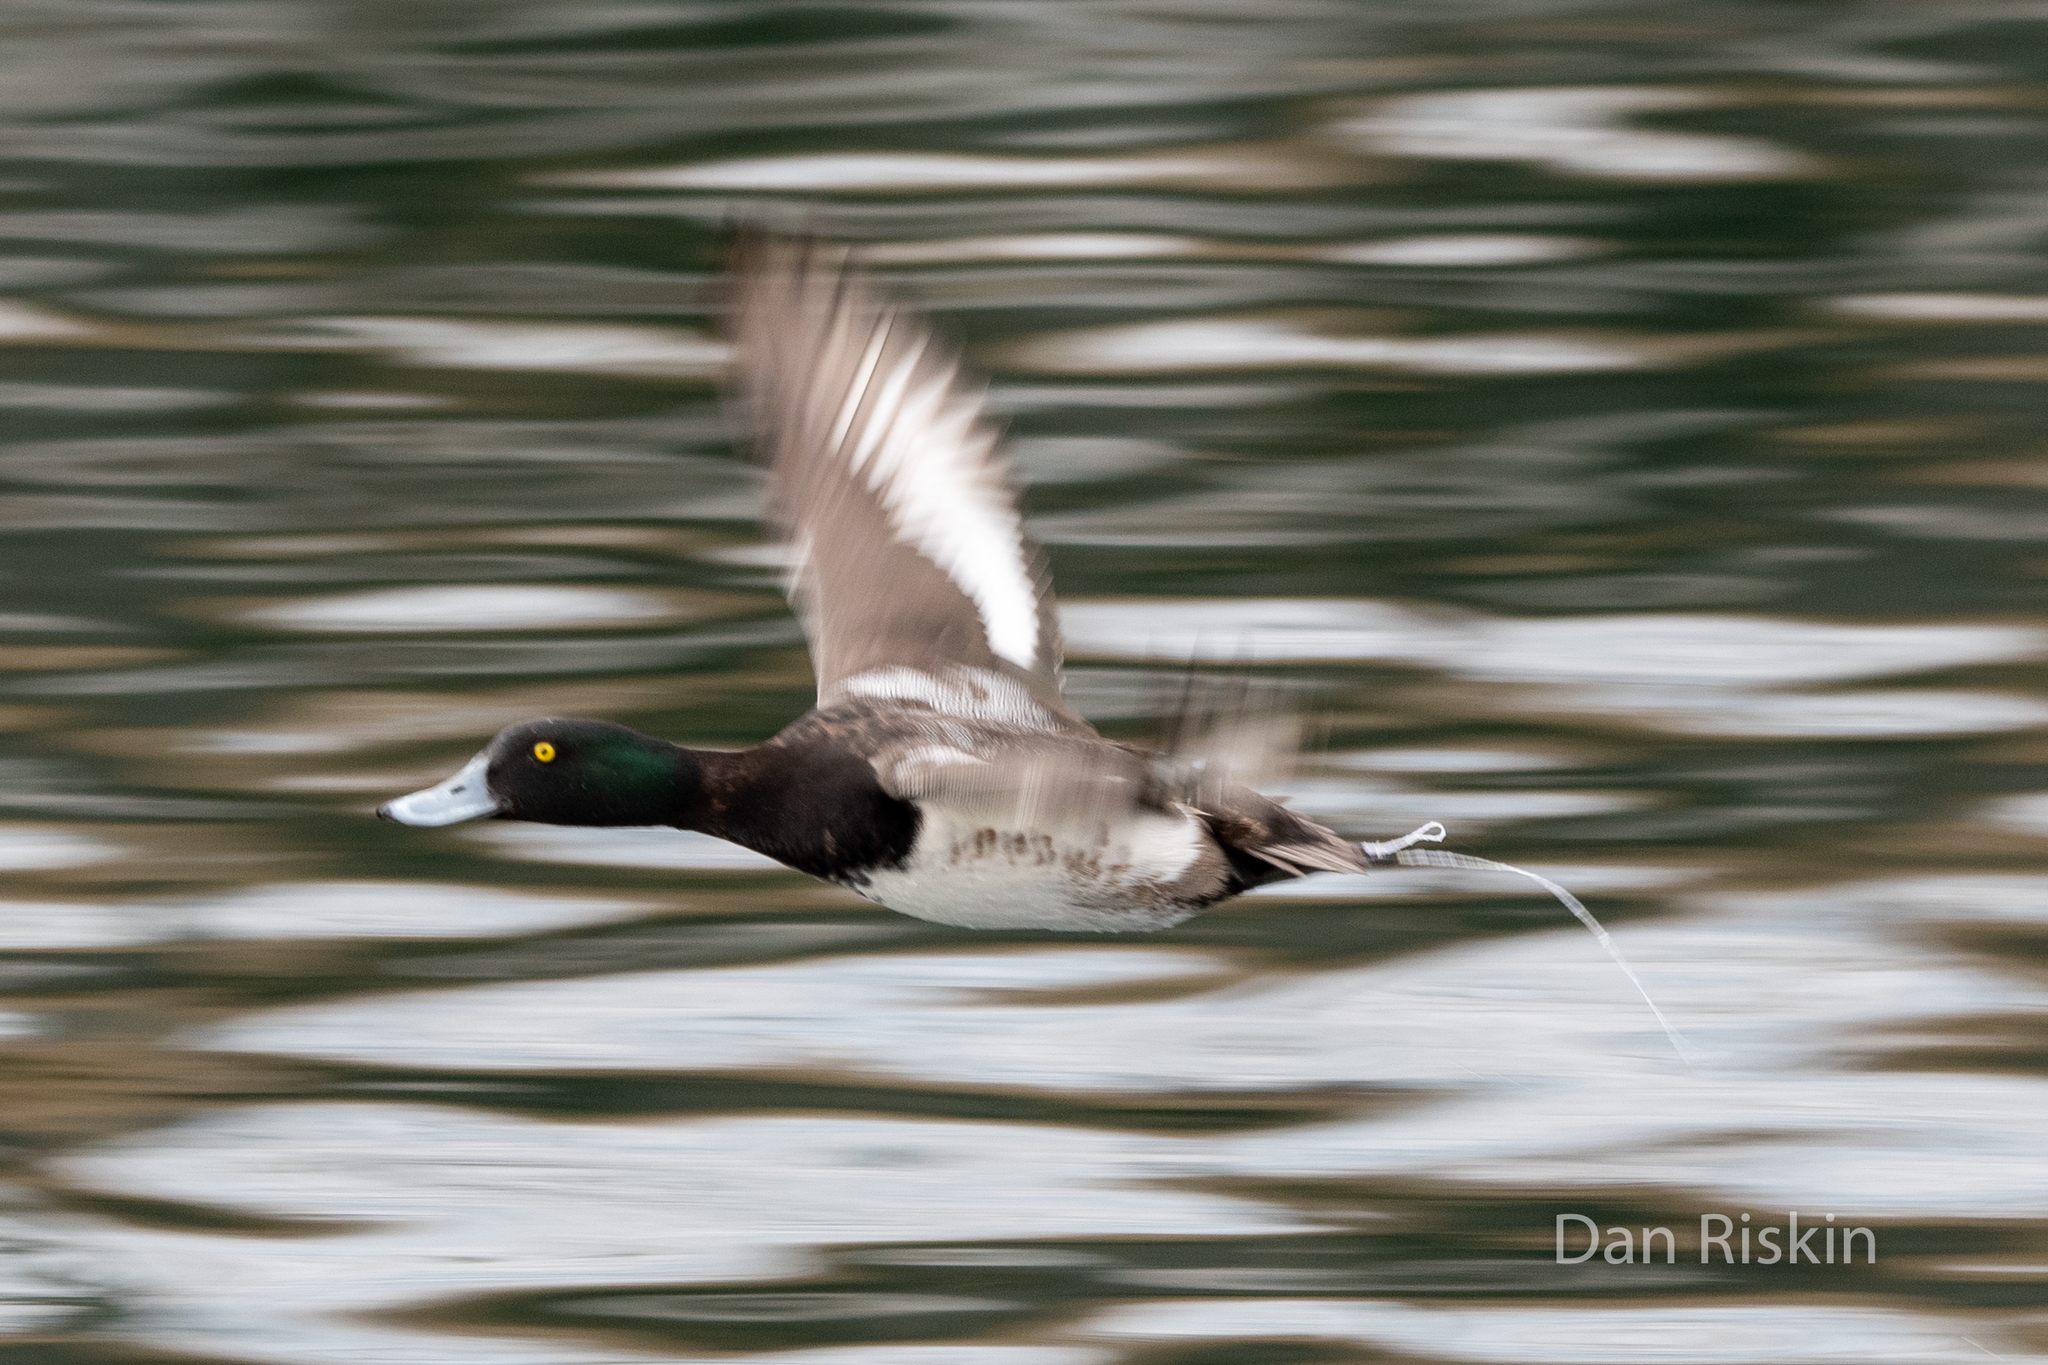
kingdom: Animalia
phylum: Chordata
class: Aves
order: Anseriformes
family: Anatidae
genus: Aythya
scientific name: Aythya marila
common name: Greater scaup
